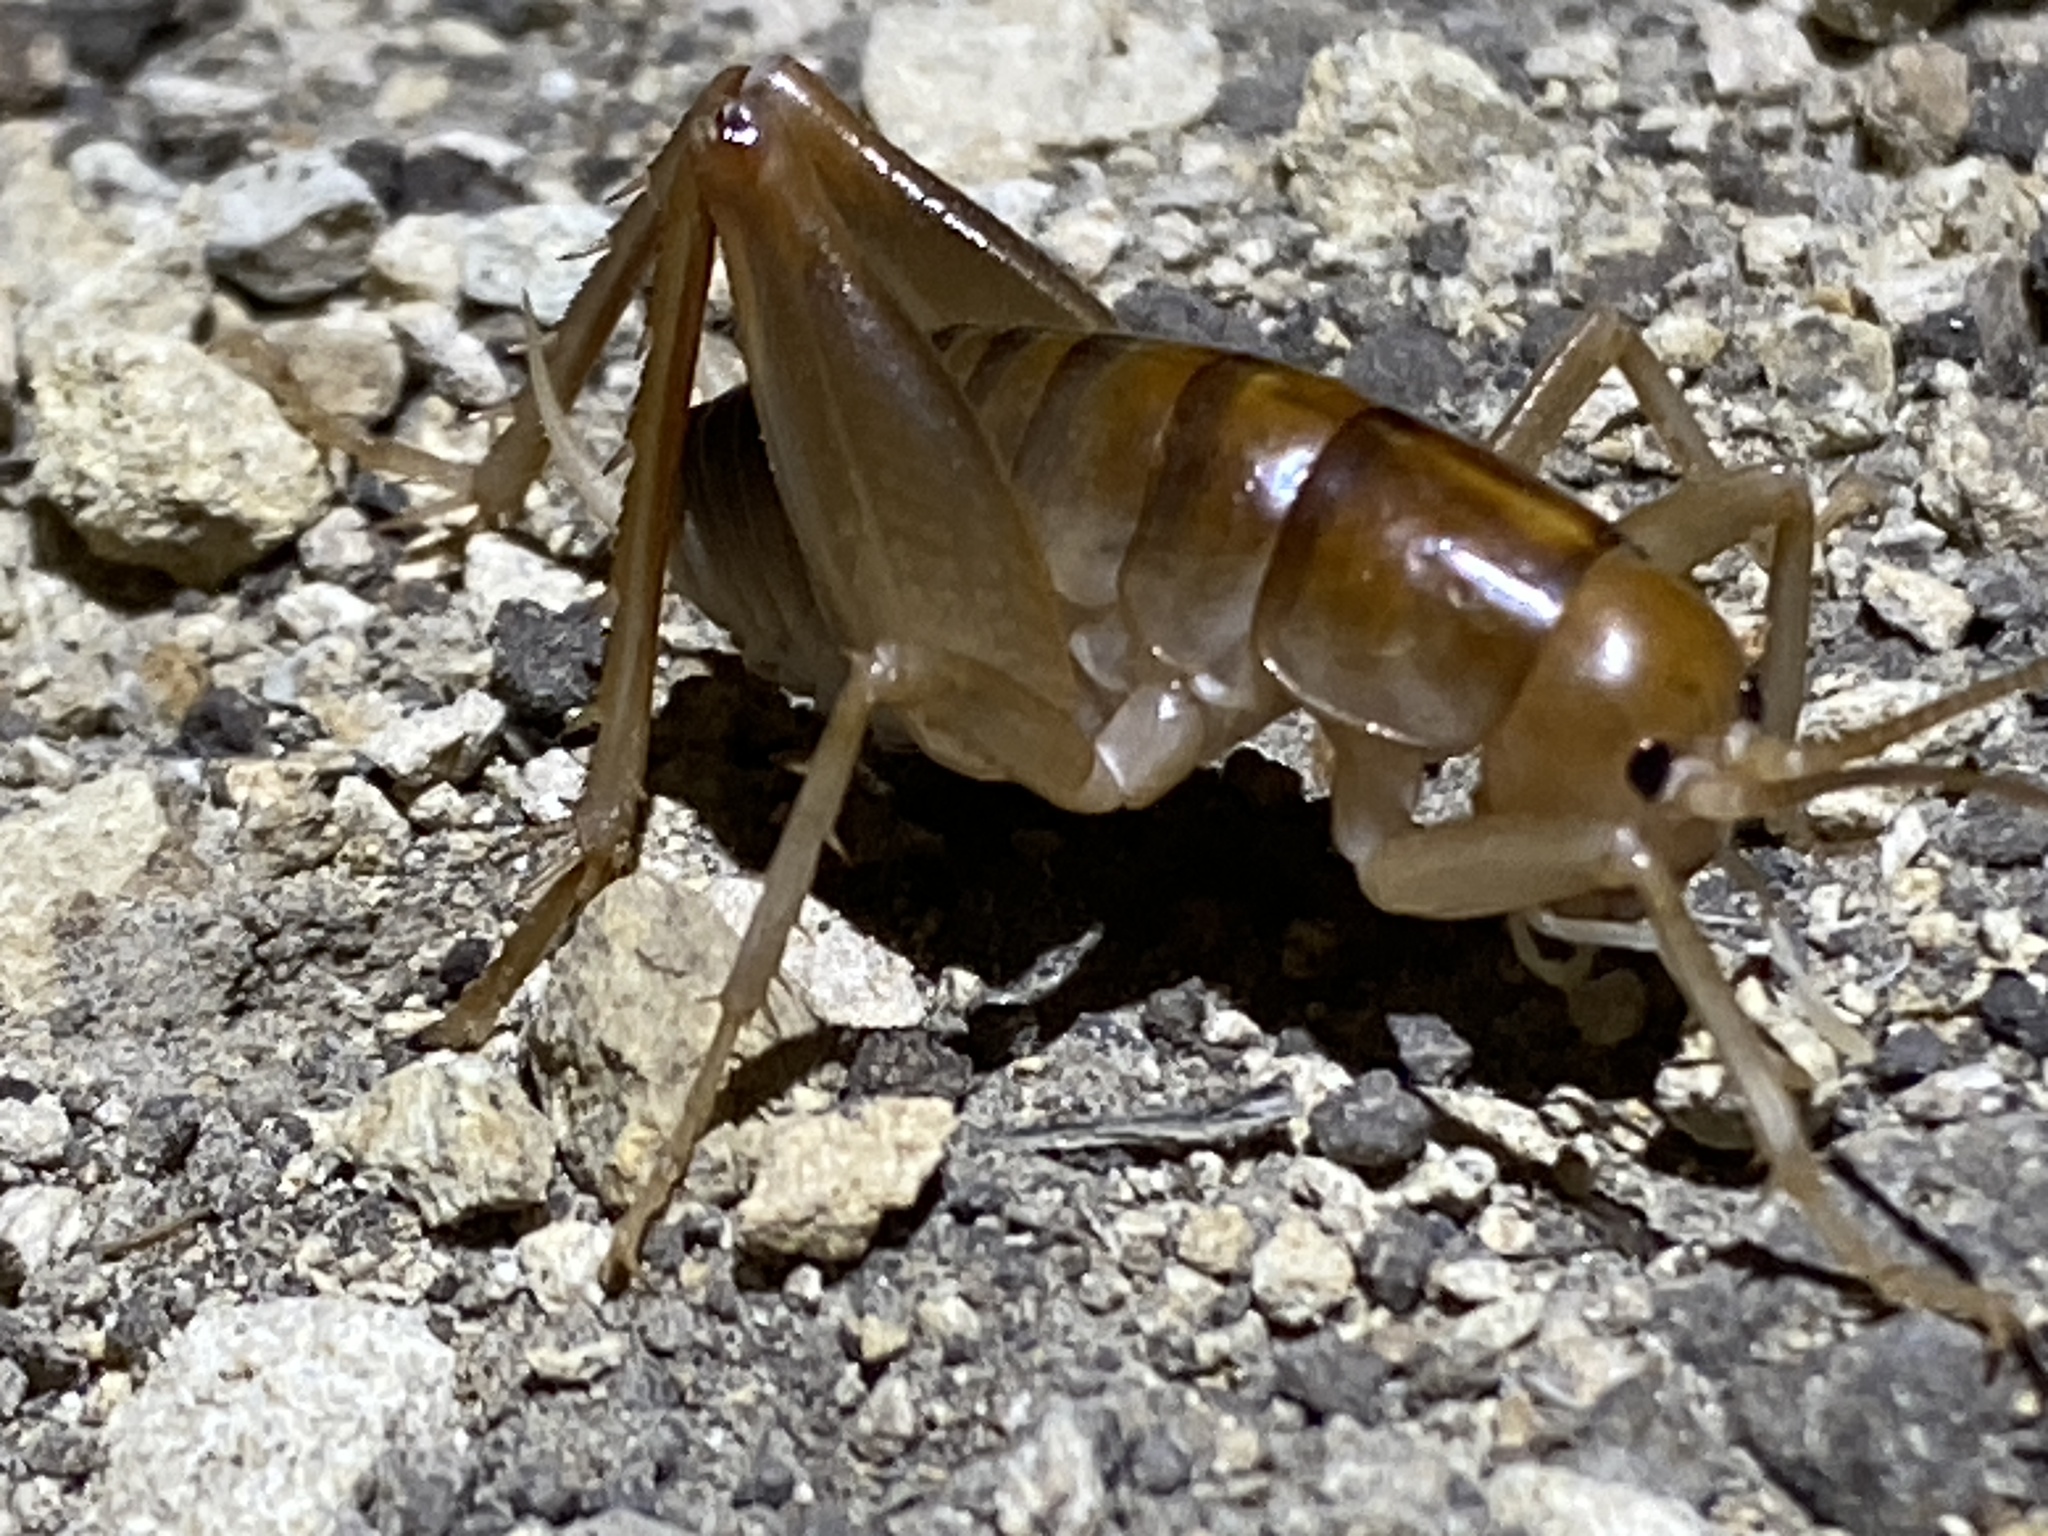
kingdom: Animalia
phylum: Arthropoda
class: Insecta
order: Orthoptera
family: Rhaphidophoridae
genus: Ceuthophilus
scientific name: Ceuthophilus californianus
